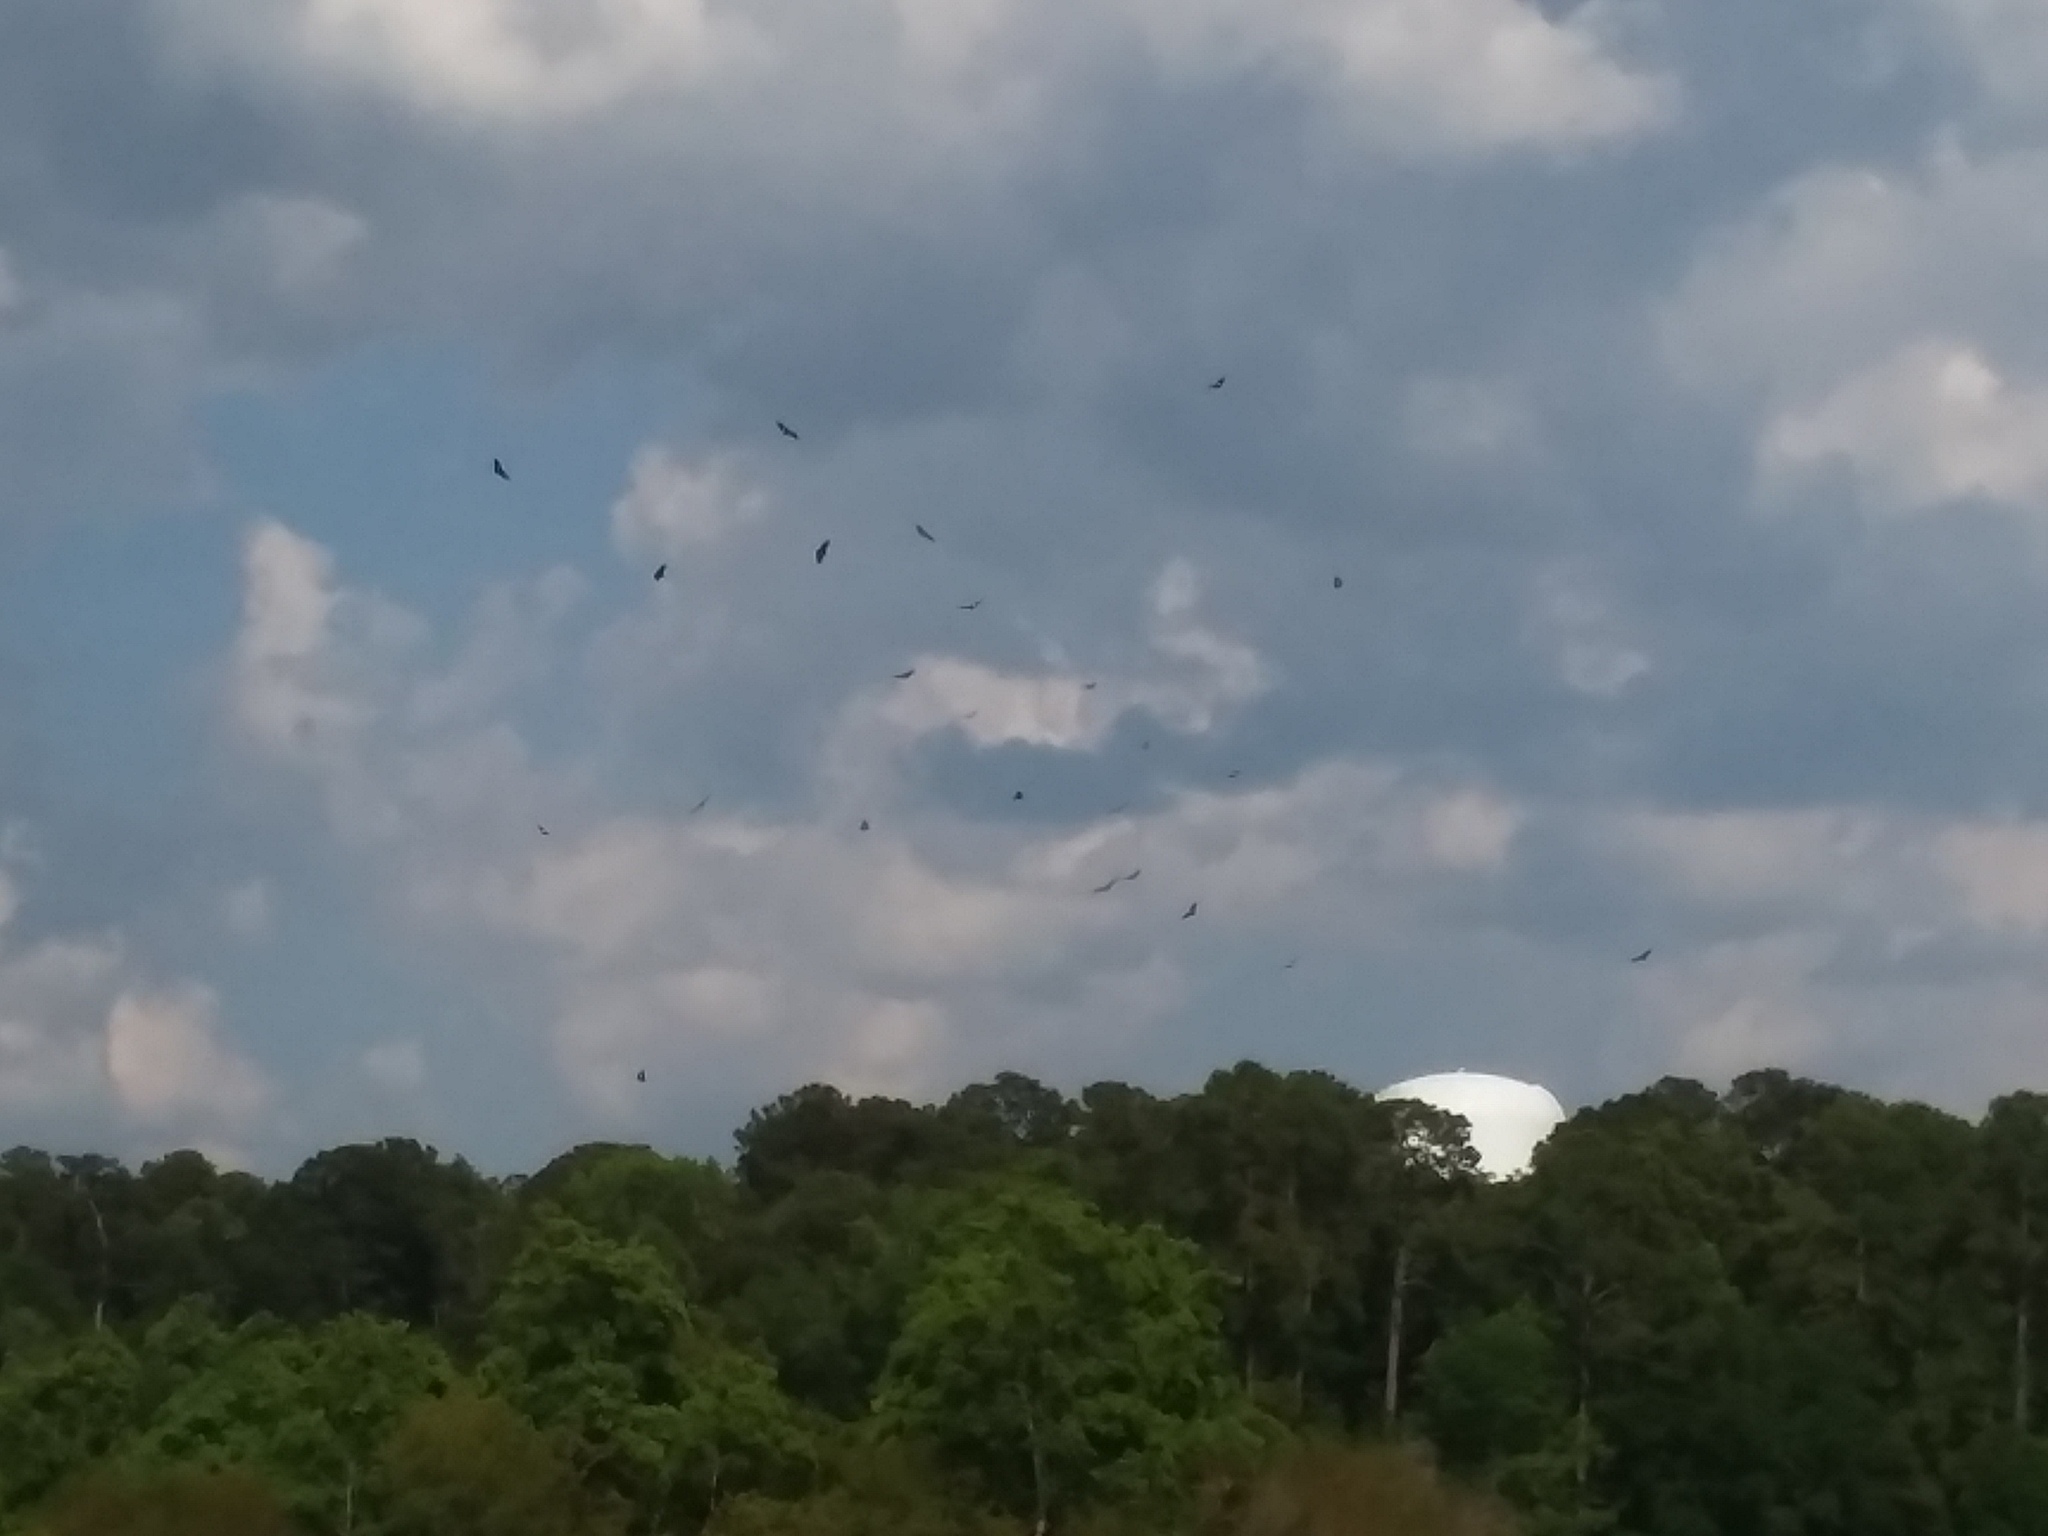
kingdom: Animalia
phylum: Chordata
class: Aves
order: Accipitriformes
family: Cathartidae
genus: Coragyps
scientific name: Coragyps atratus
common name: Black vulture
